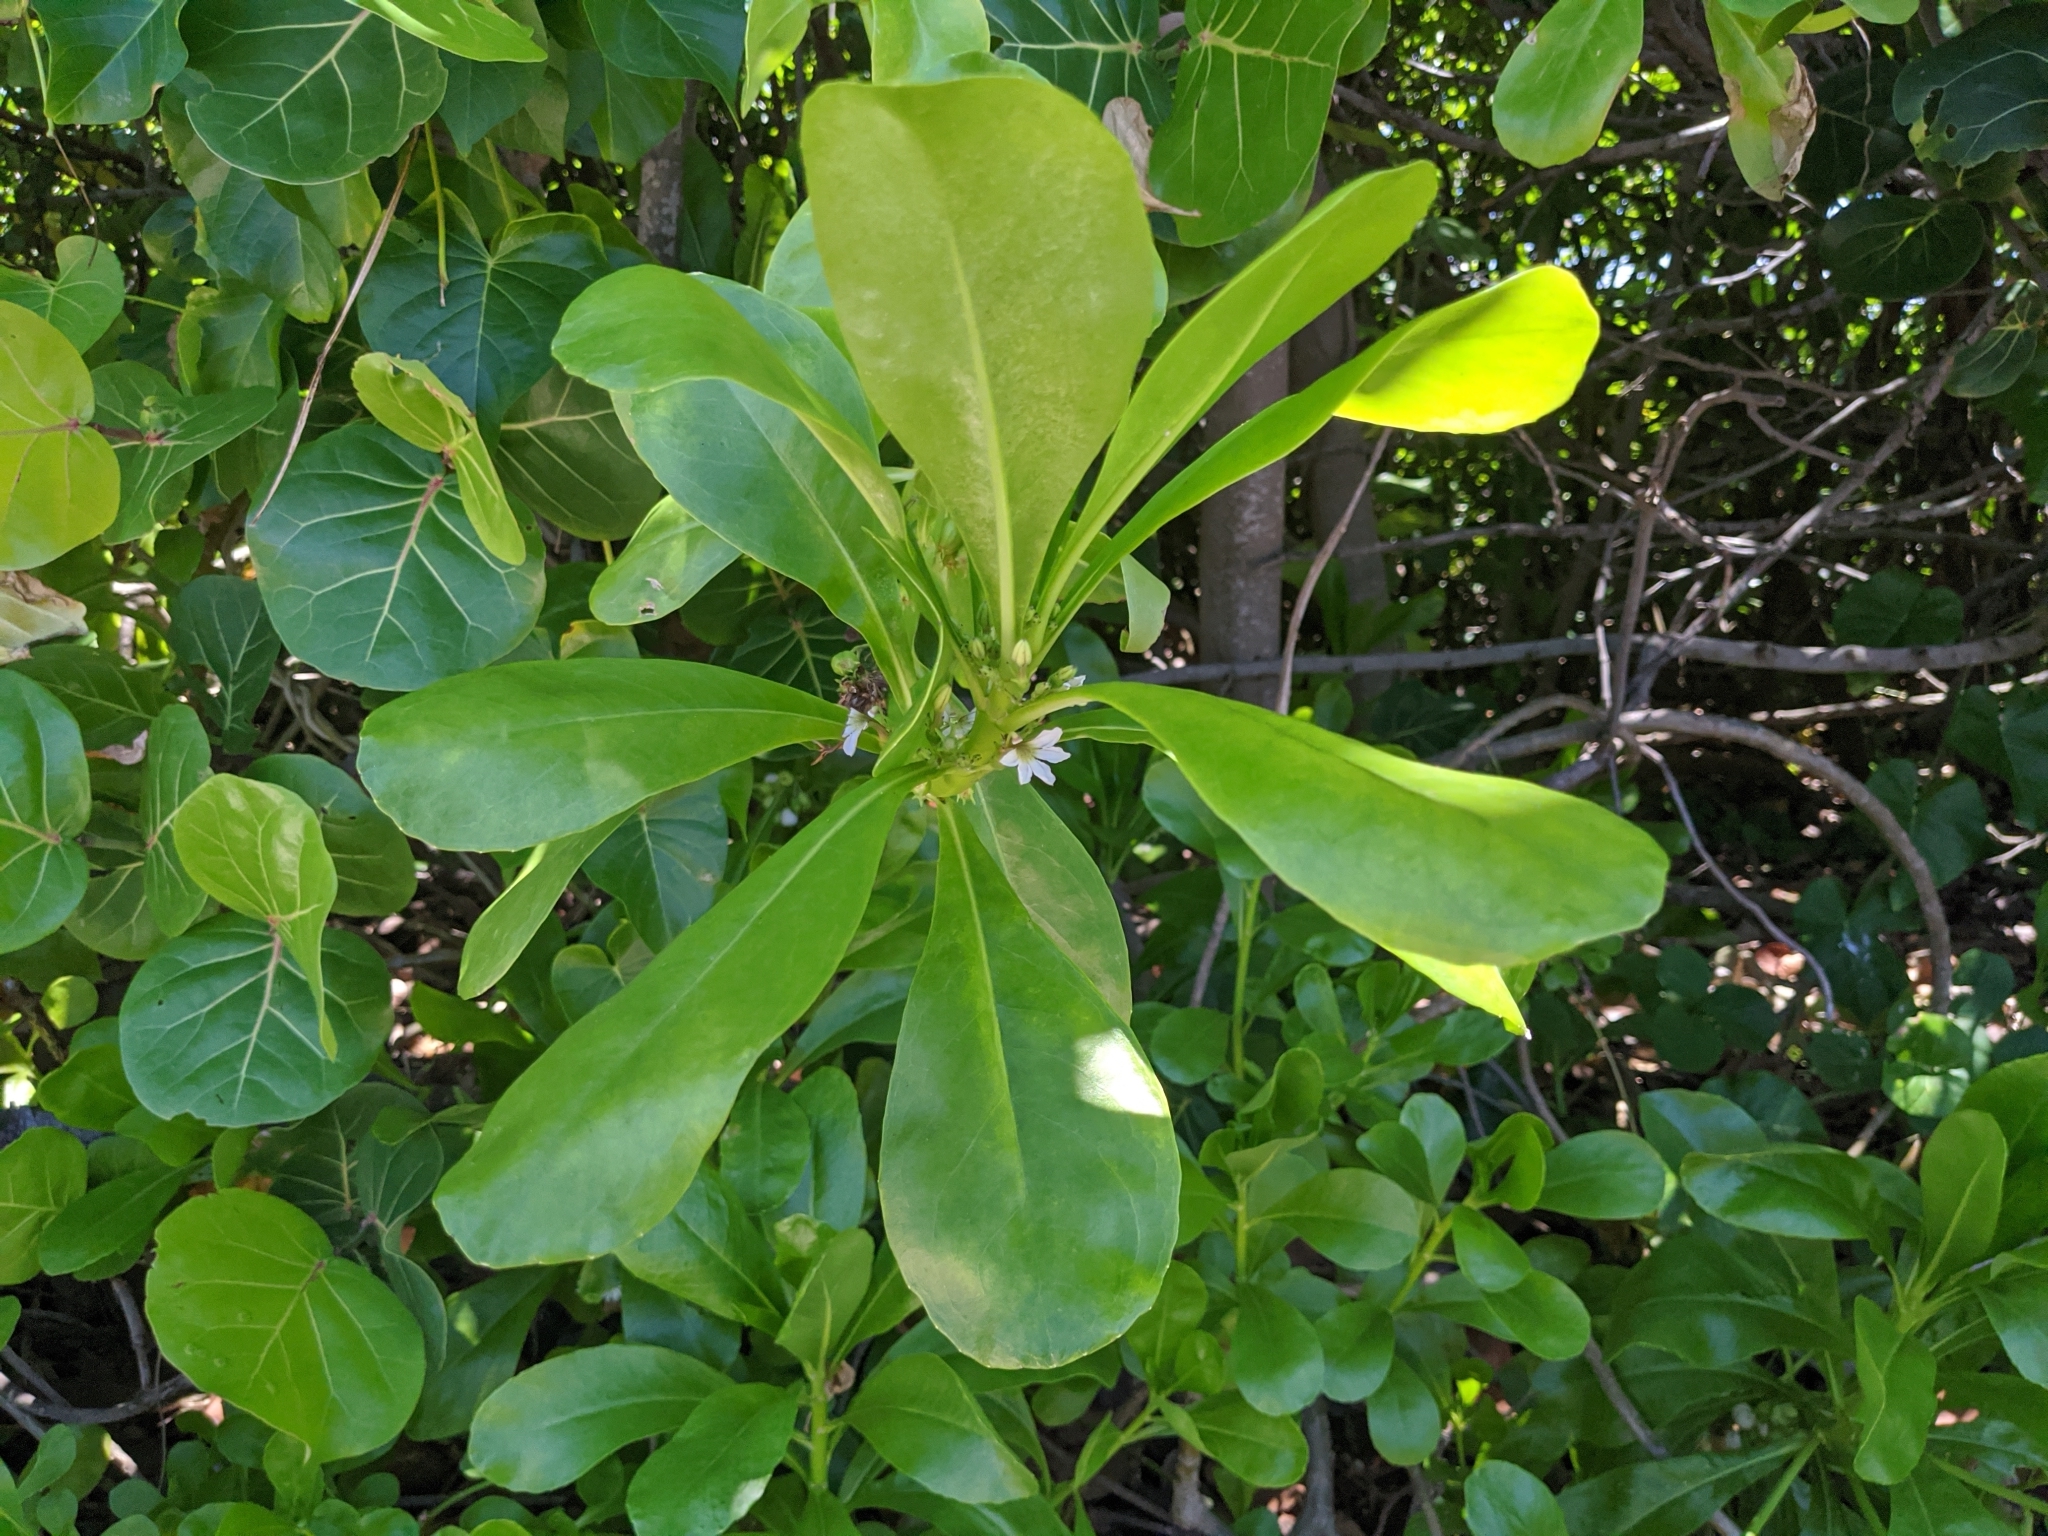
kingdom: Plantae
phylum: Tracheophyta
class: Magnoliopsida
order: Asterales
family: Goodeniaceae
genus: Scaevola
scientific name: Scaevola taccada
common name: Sea lettucetree
